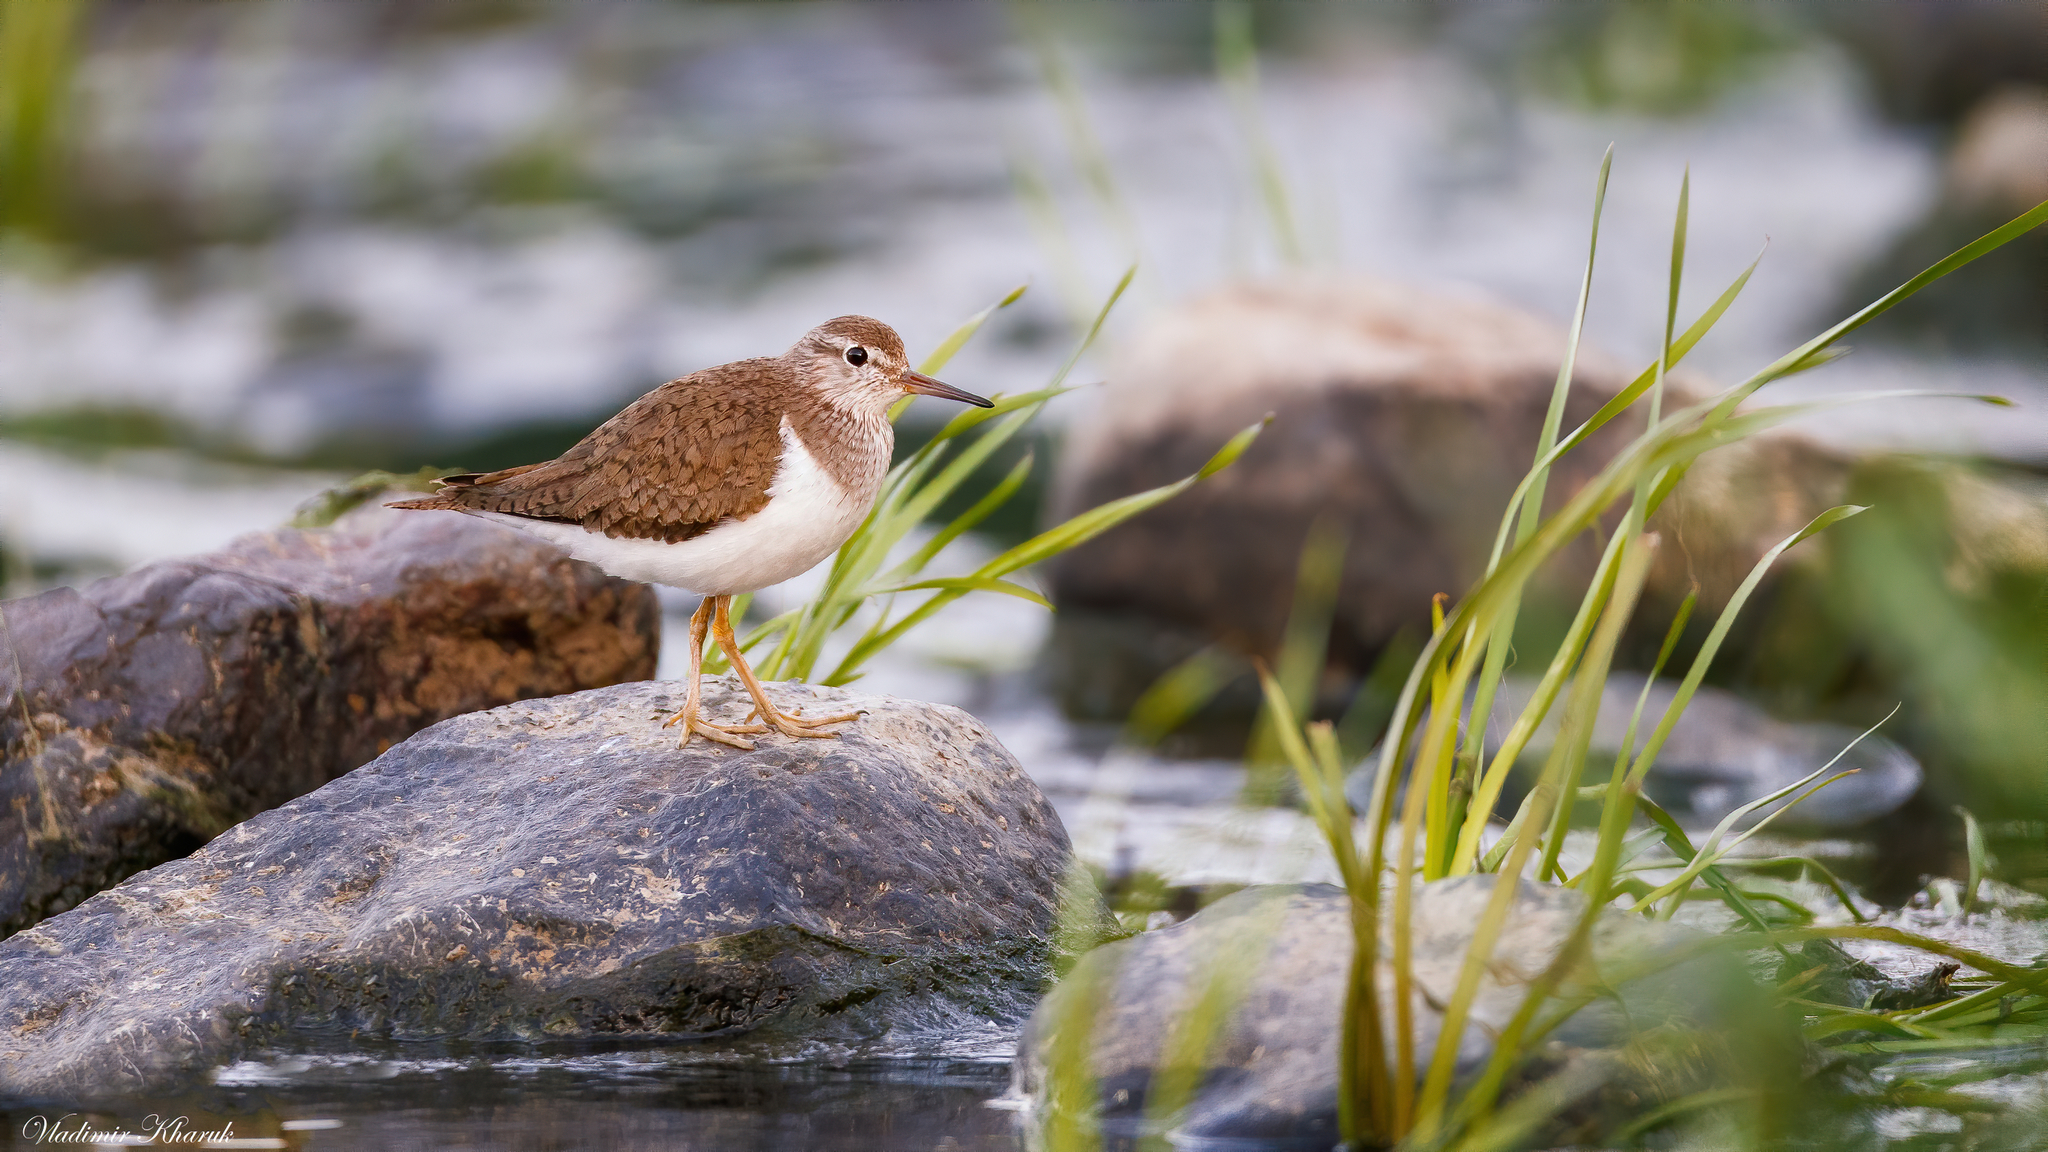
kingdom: Animalia
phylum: Chordata
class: Aves
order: Charadriiformes
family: Scolopacidae
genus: Actitis
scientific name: Actitis hypoleucos
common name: Common sandpiper
